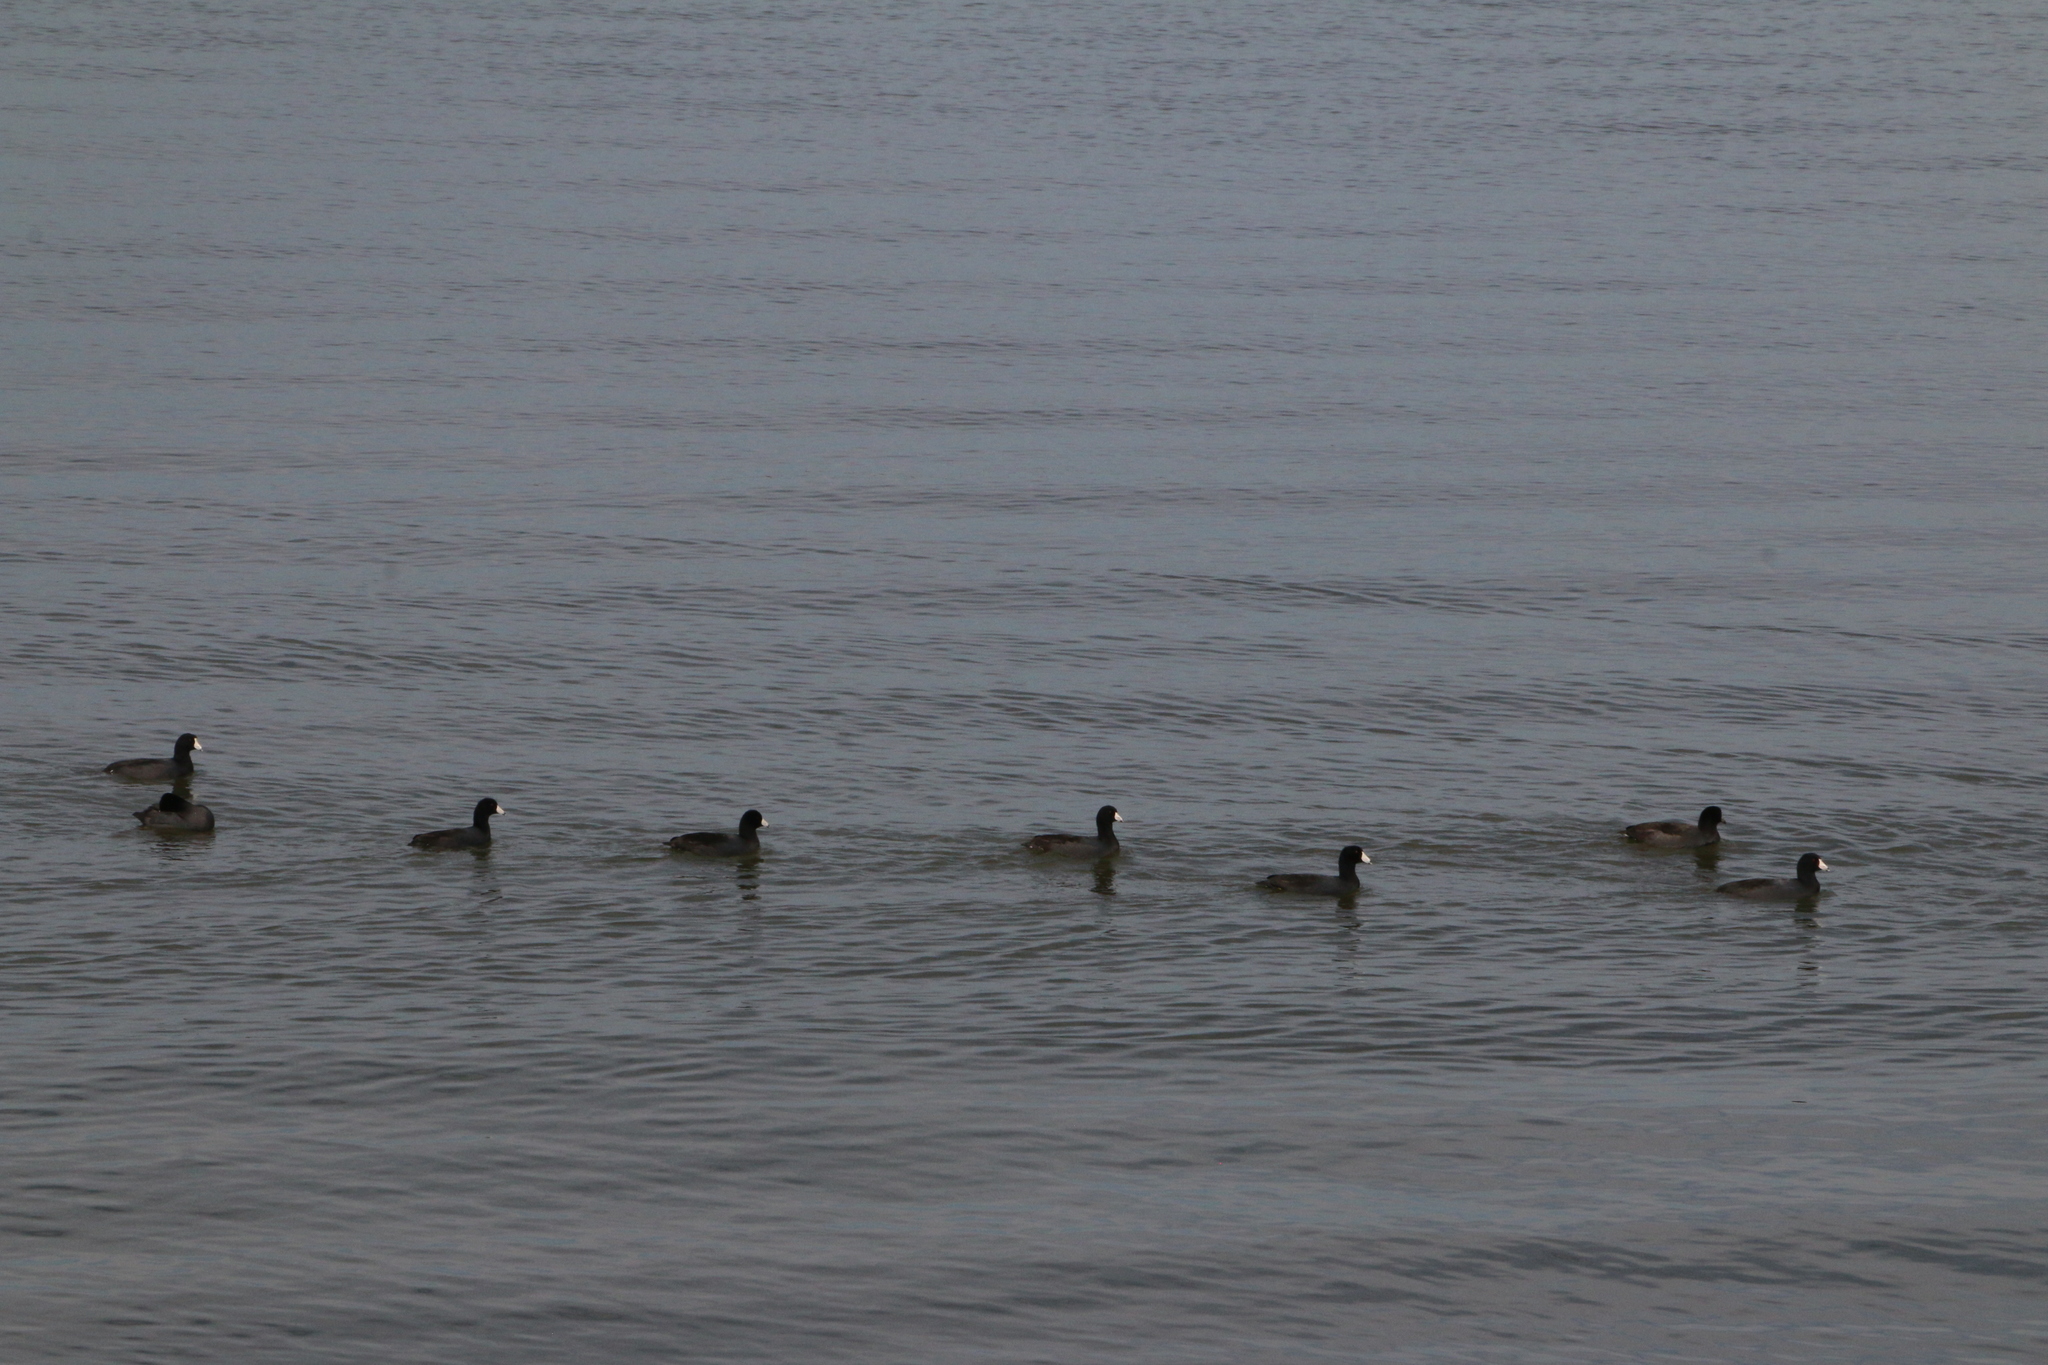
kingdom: Animalia
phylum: Chordata
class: Aves
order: Gruiformes
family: Rallidae
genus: Fulica
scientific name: Fulica americana
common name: American coot
